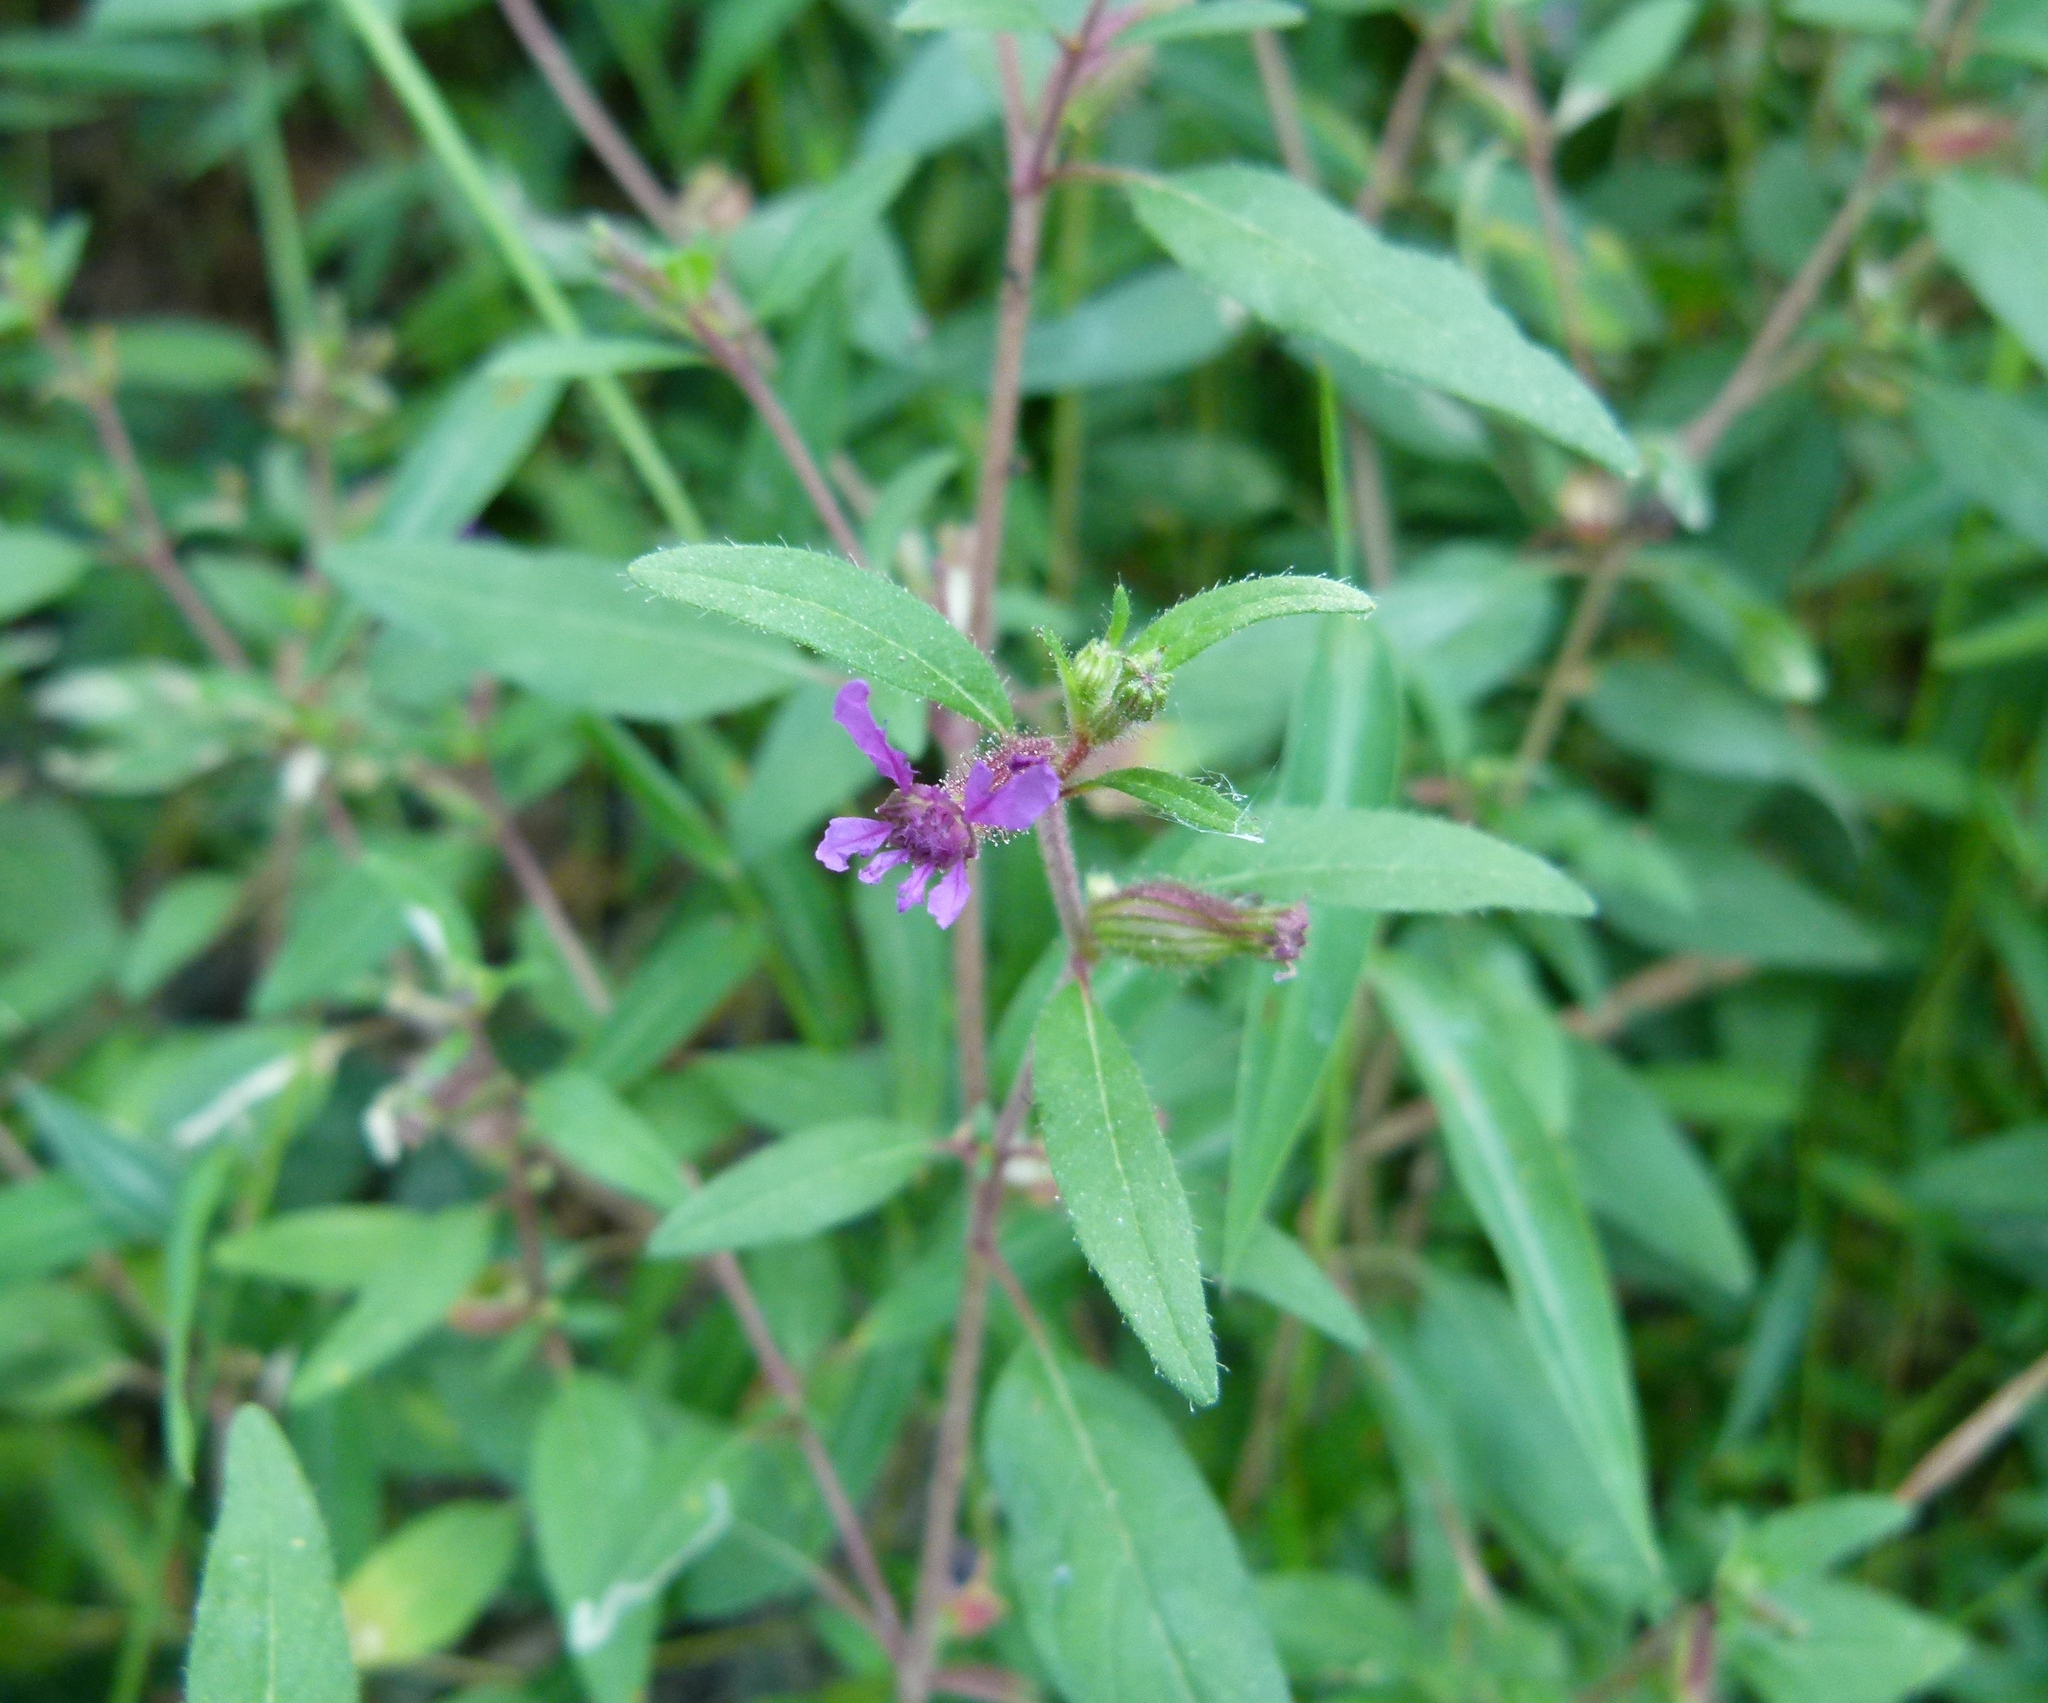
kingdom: Plantae
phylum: Tracheophyta
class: Magnoliopsida
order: Myrtales
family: Lythraceae
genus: Cuphea
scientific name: Cuphea viscosissima
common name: Clammy cuphea
